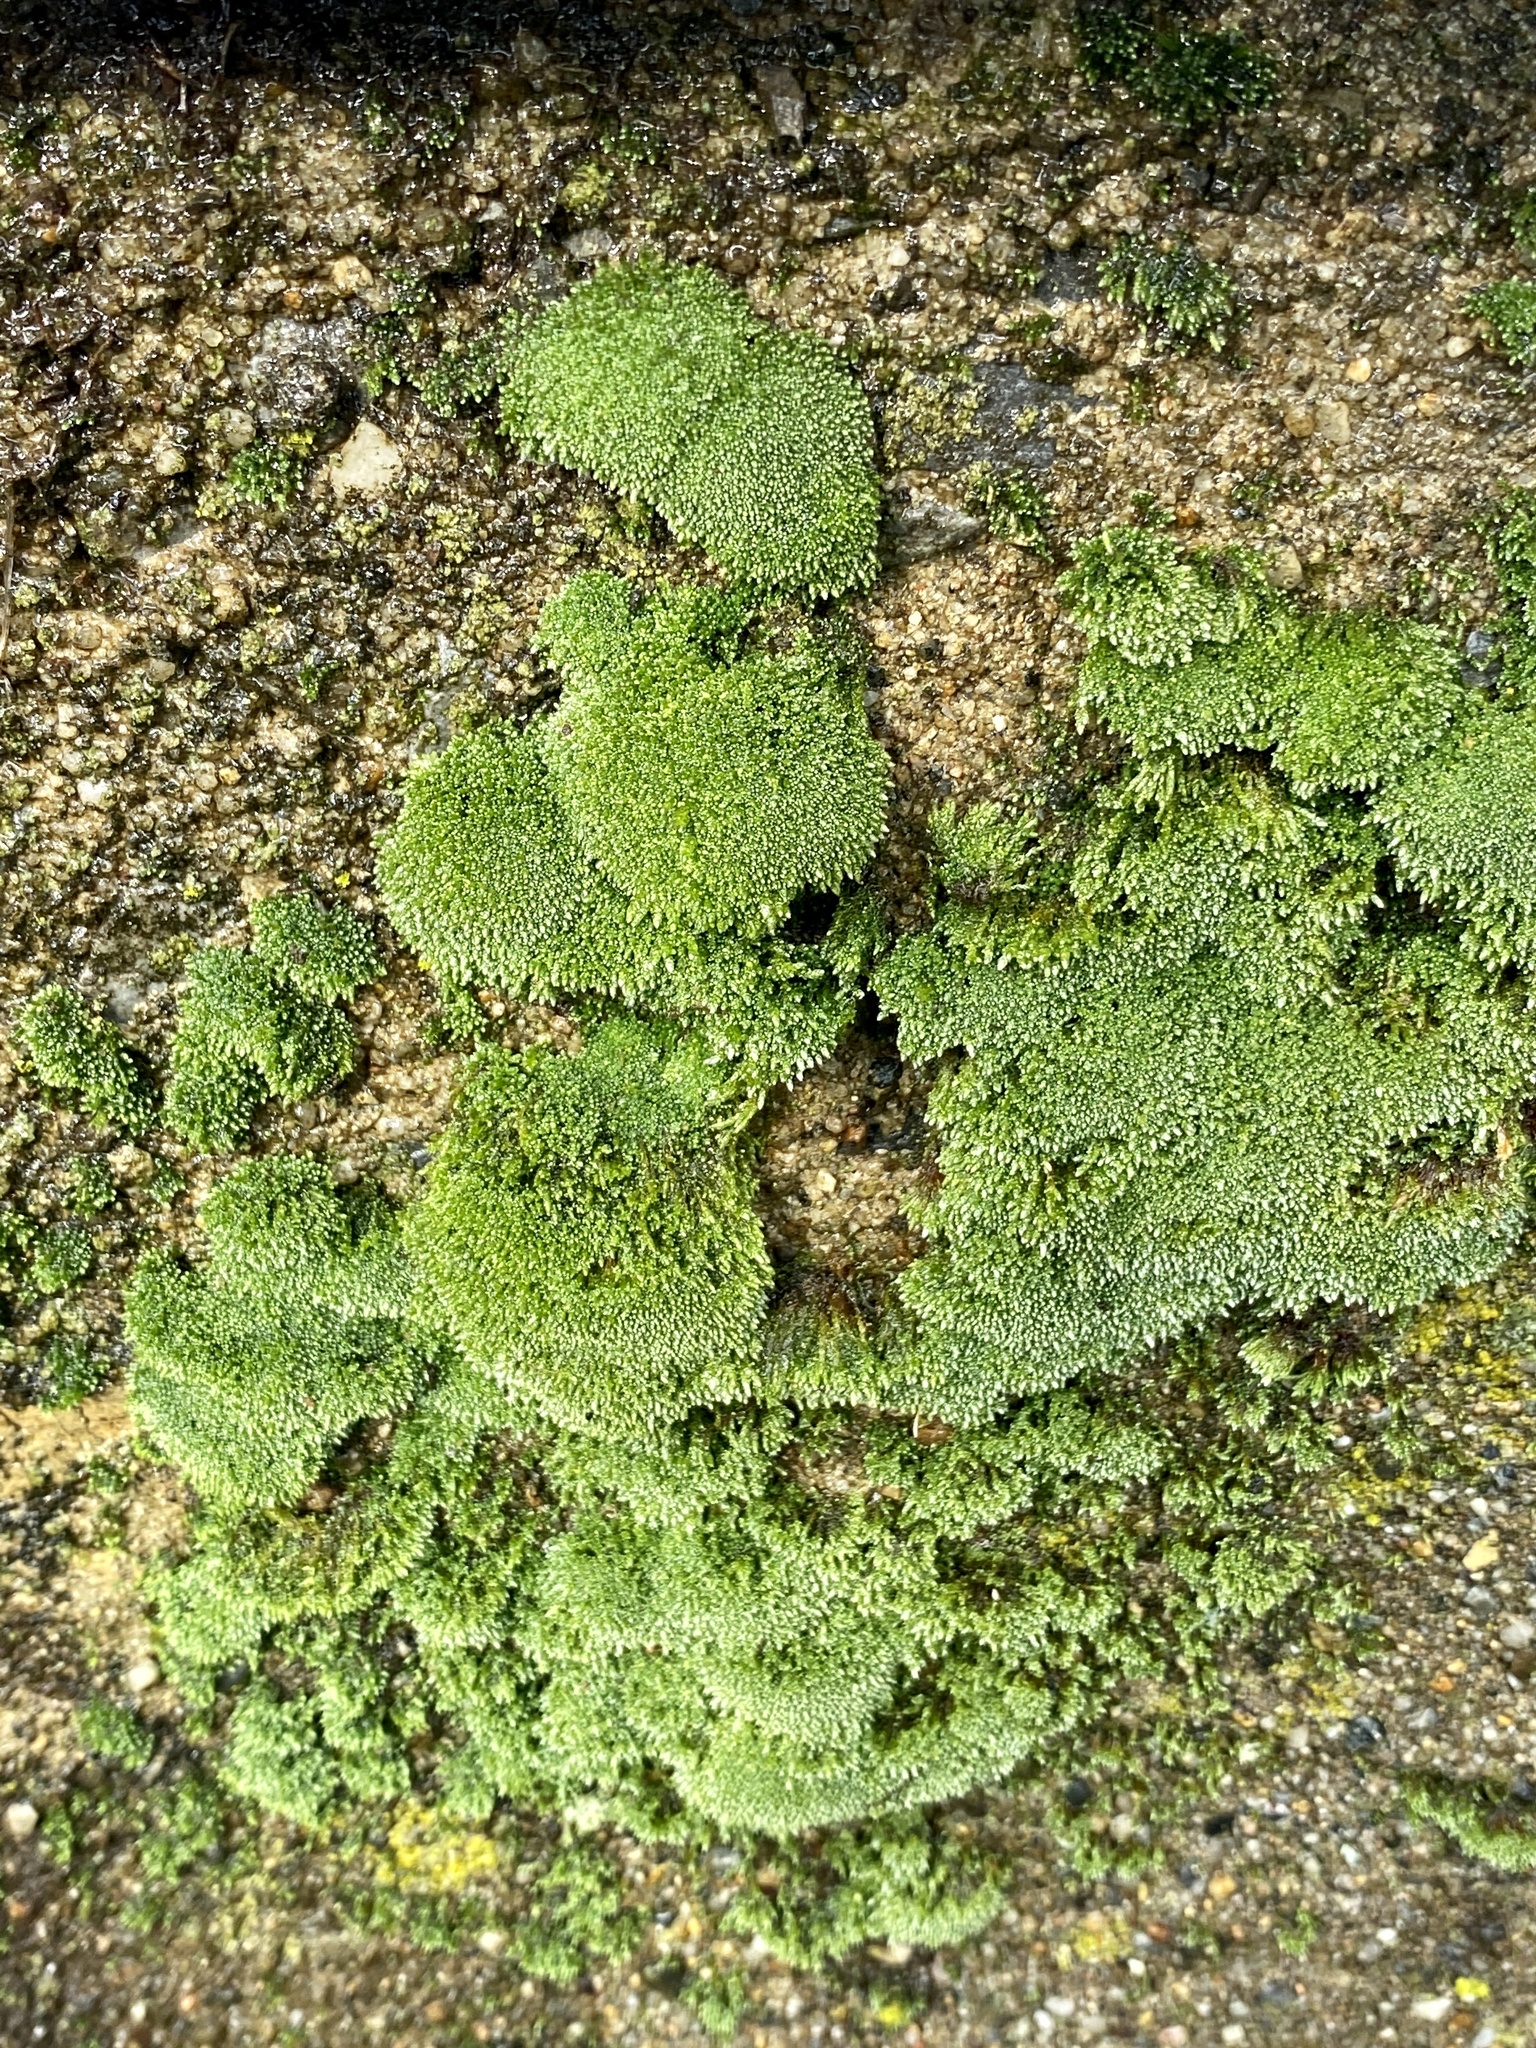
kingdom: Plantae
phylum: Bryophyta
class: Bryopsida
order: Bryales
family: Bryaceae
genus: Bryum
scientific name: Bryum argenteum
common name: Silver-moss
